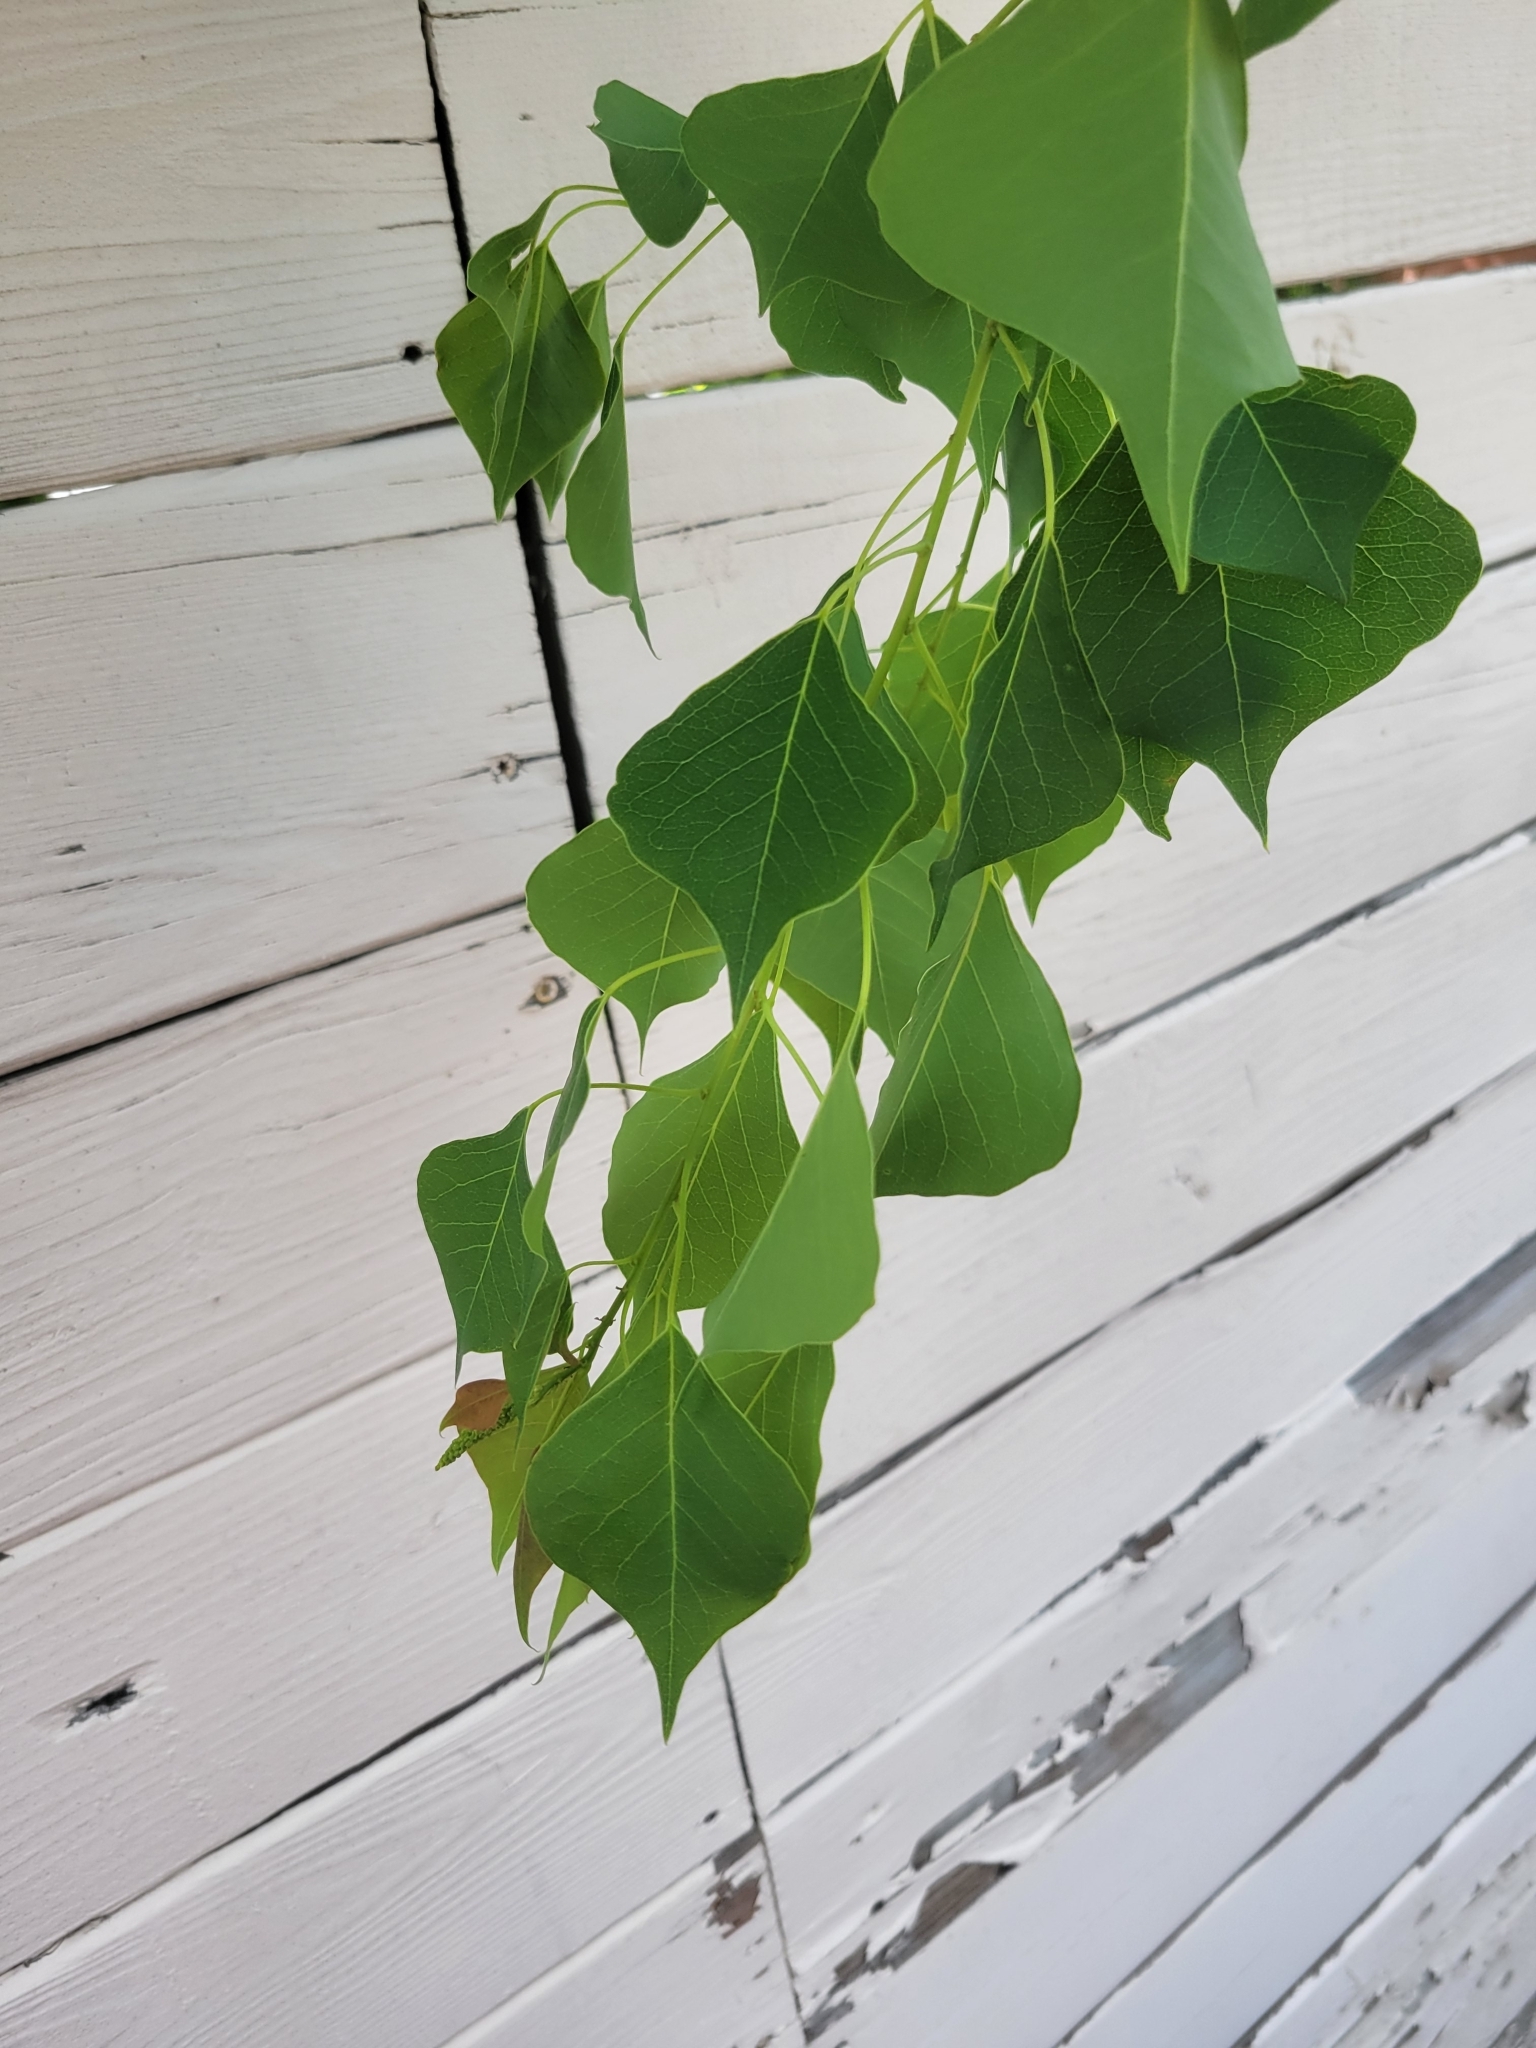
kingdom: Plantae
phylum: Tracheophyta
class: Magnoliopsida
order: Malpighiales
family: Euphorbiaceae
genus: Triadica
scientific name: Triadica sebifera
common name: Chinese tallow
